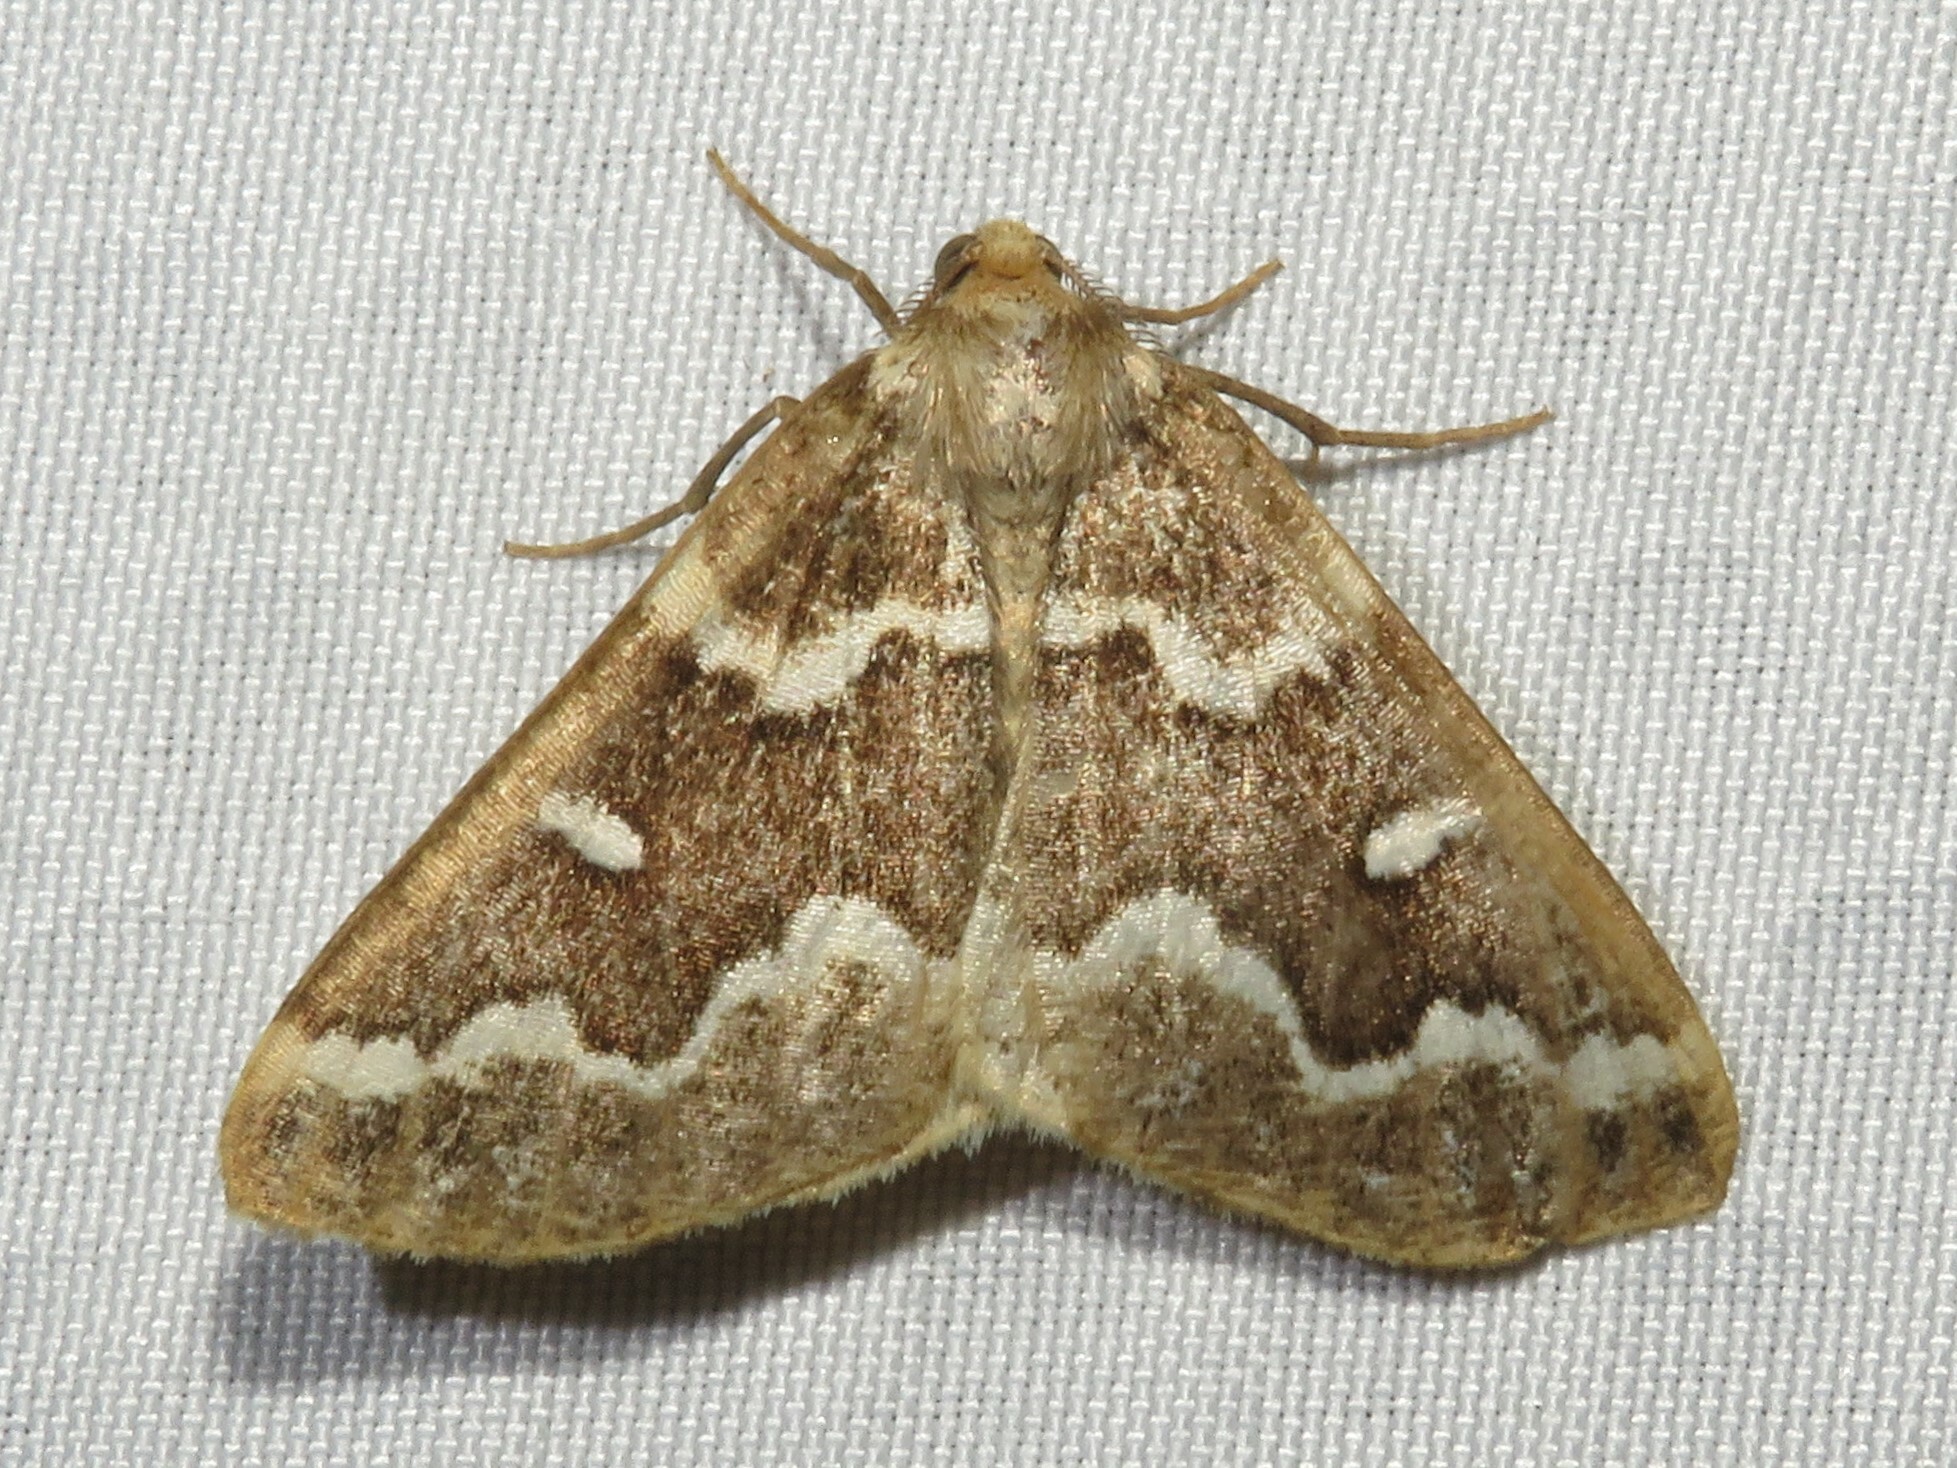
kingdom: Animalia
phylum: Arthropoda
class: Insecta
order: Lepidoptera
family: Geometridae
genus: Caripeta
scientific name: Caripeta divisata
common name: Gray spruce looper
